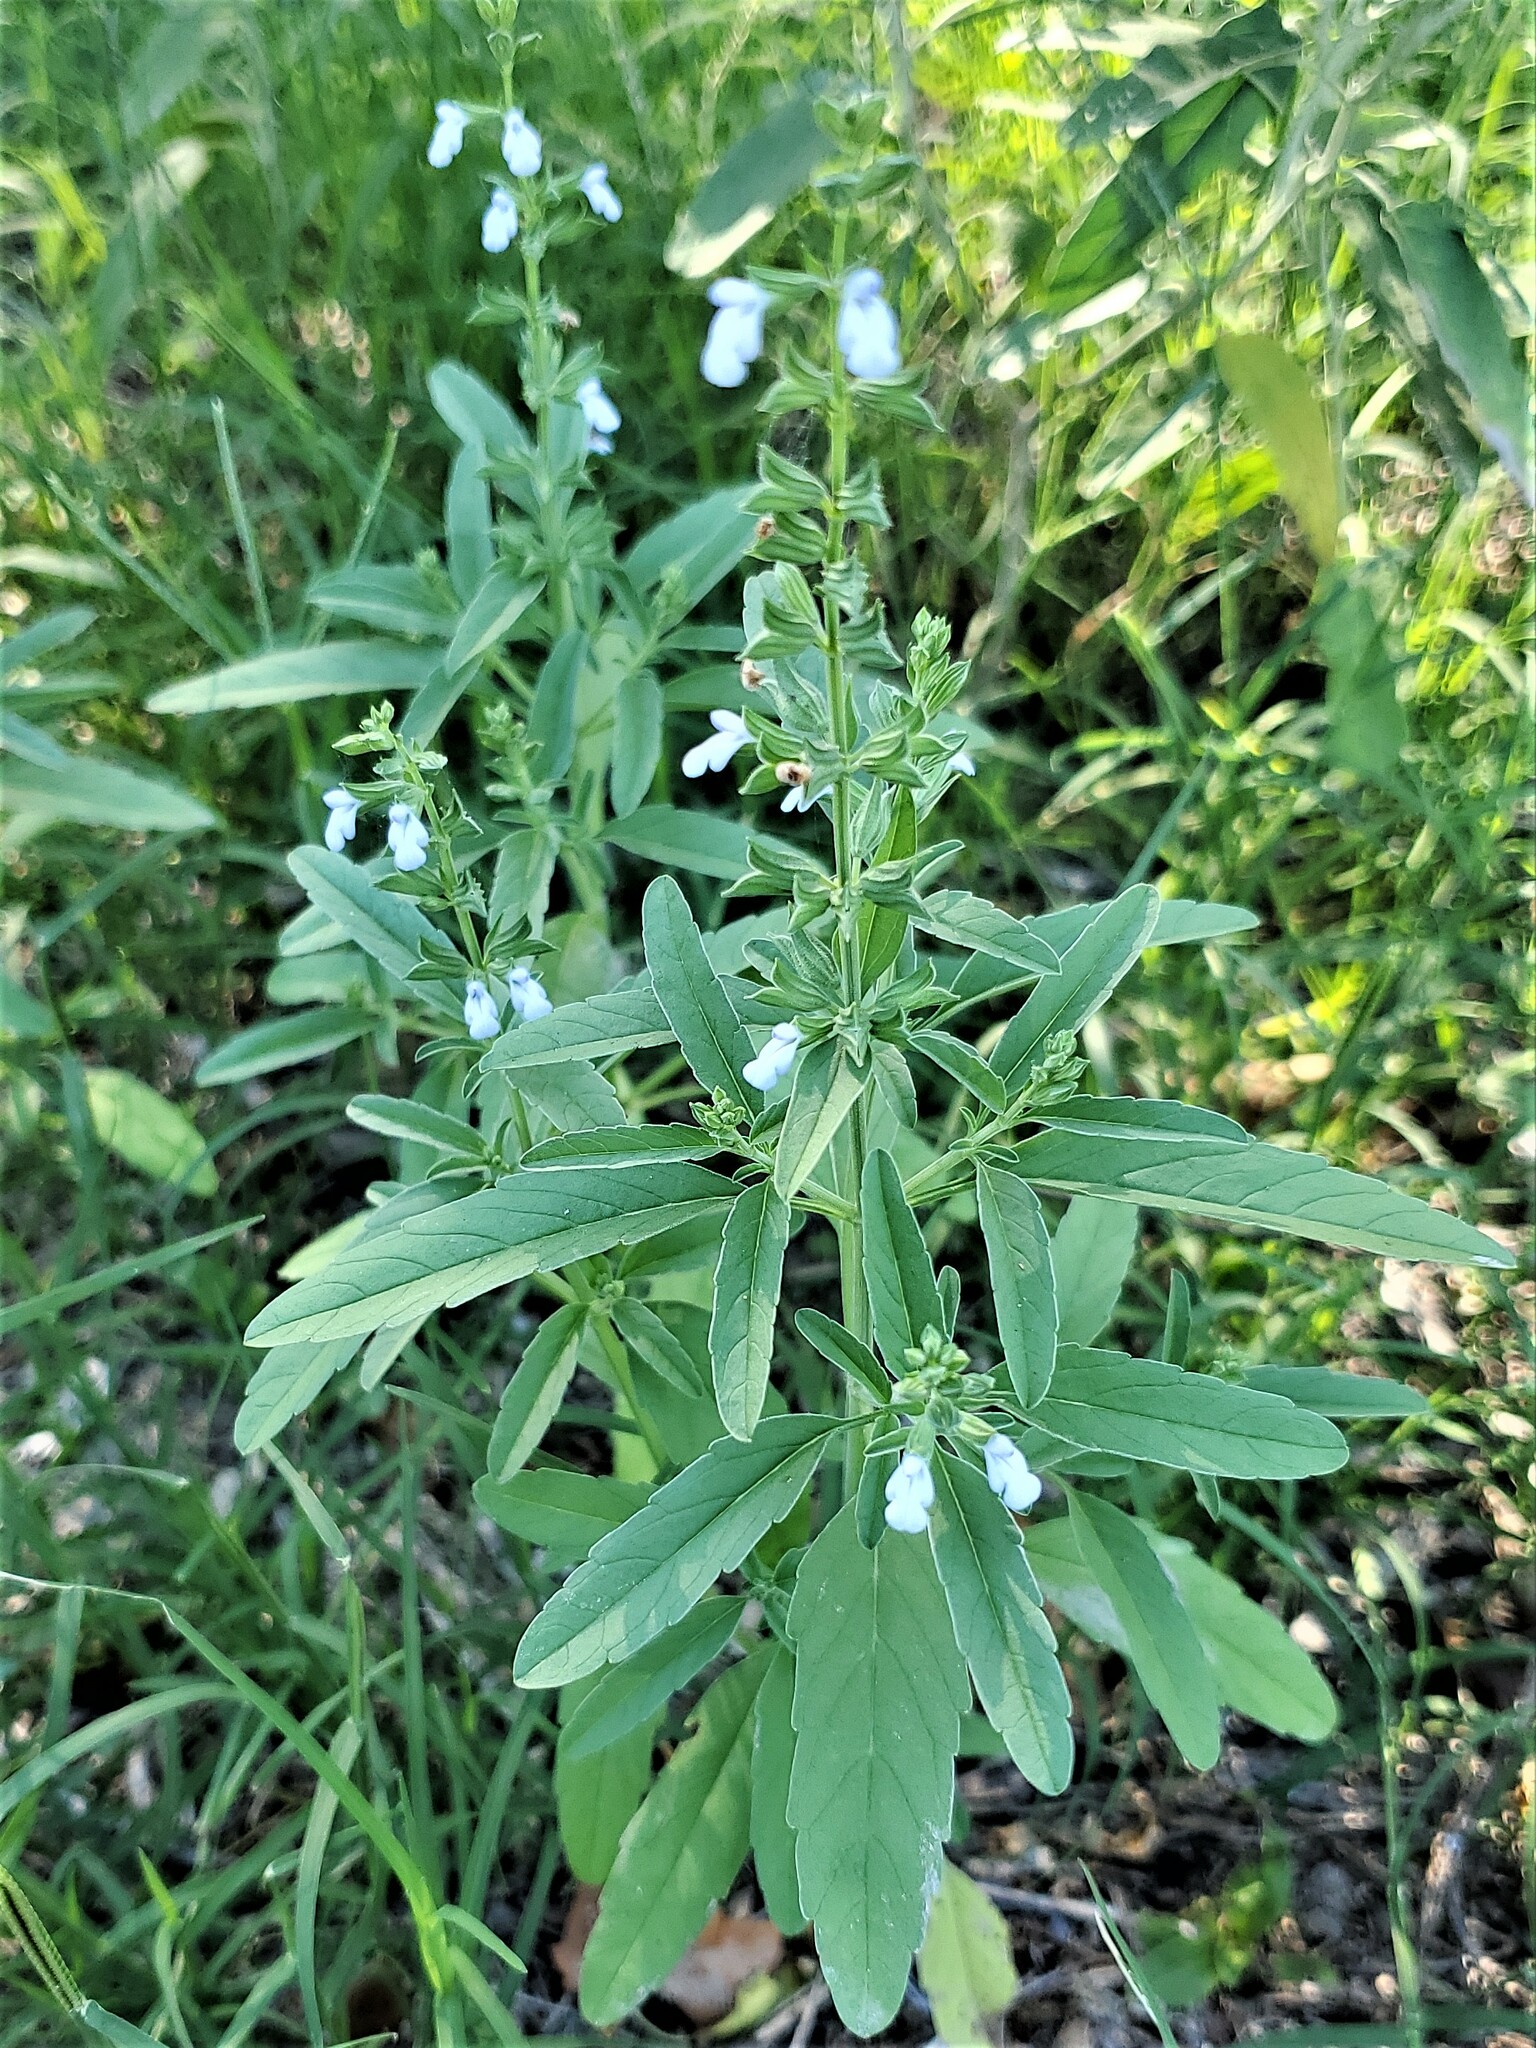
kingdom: Plantae
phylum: Tracheophyta
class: Magnoliopsida
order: Lamiales
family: Lamiaceae
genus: Salvia
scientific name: Salvia reflexa
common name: Mintweed
